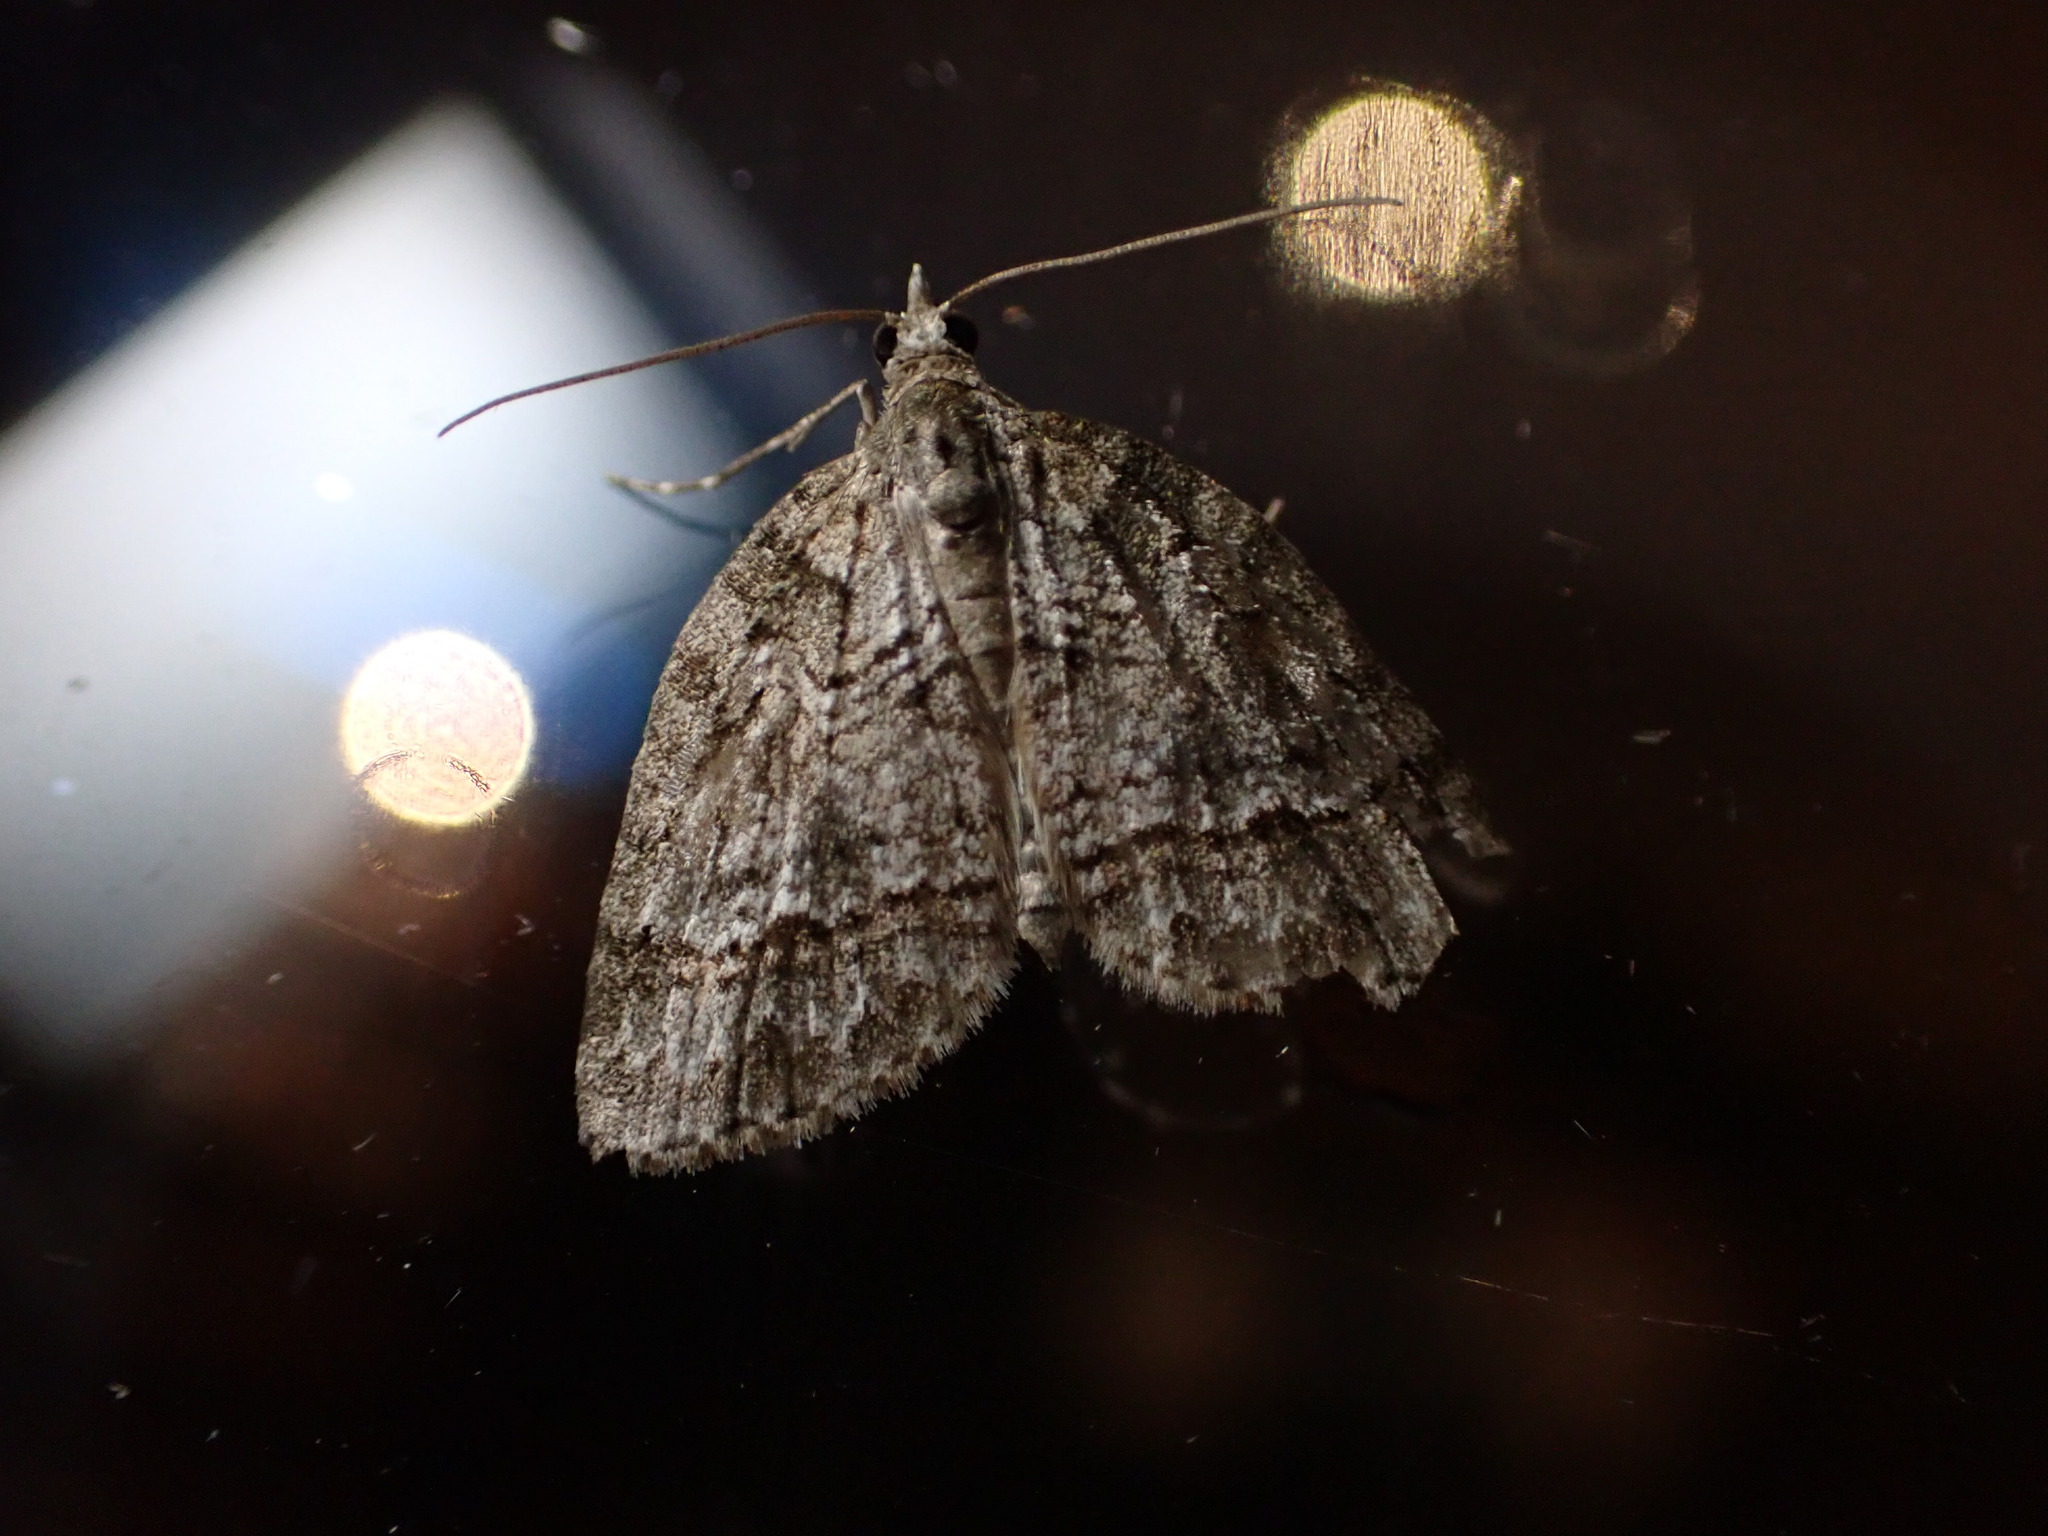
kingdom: Animalia
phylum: Arthropoda
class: Insecta
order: Lepidoptera
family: Geometridae
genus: Microdes
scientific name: Microdes quadristrigata
